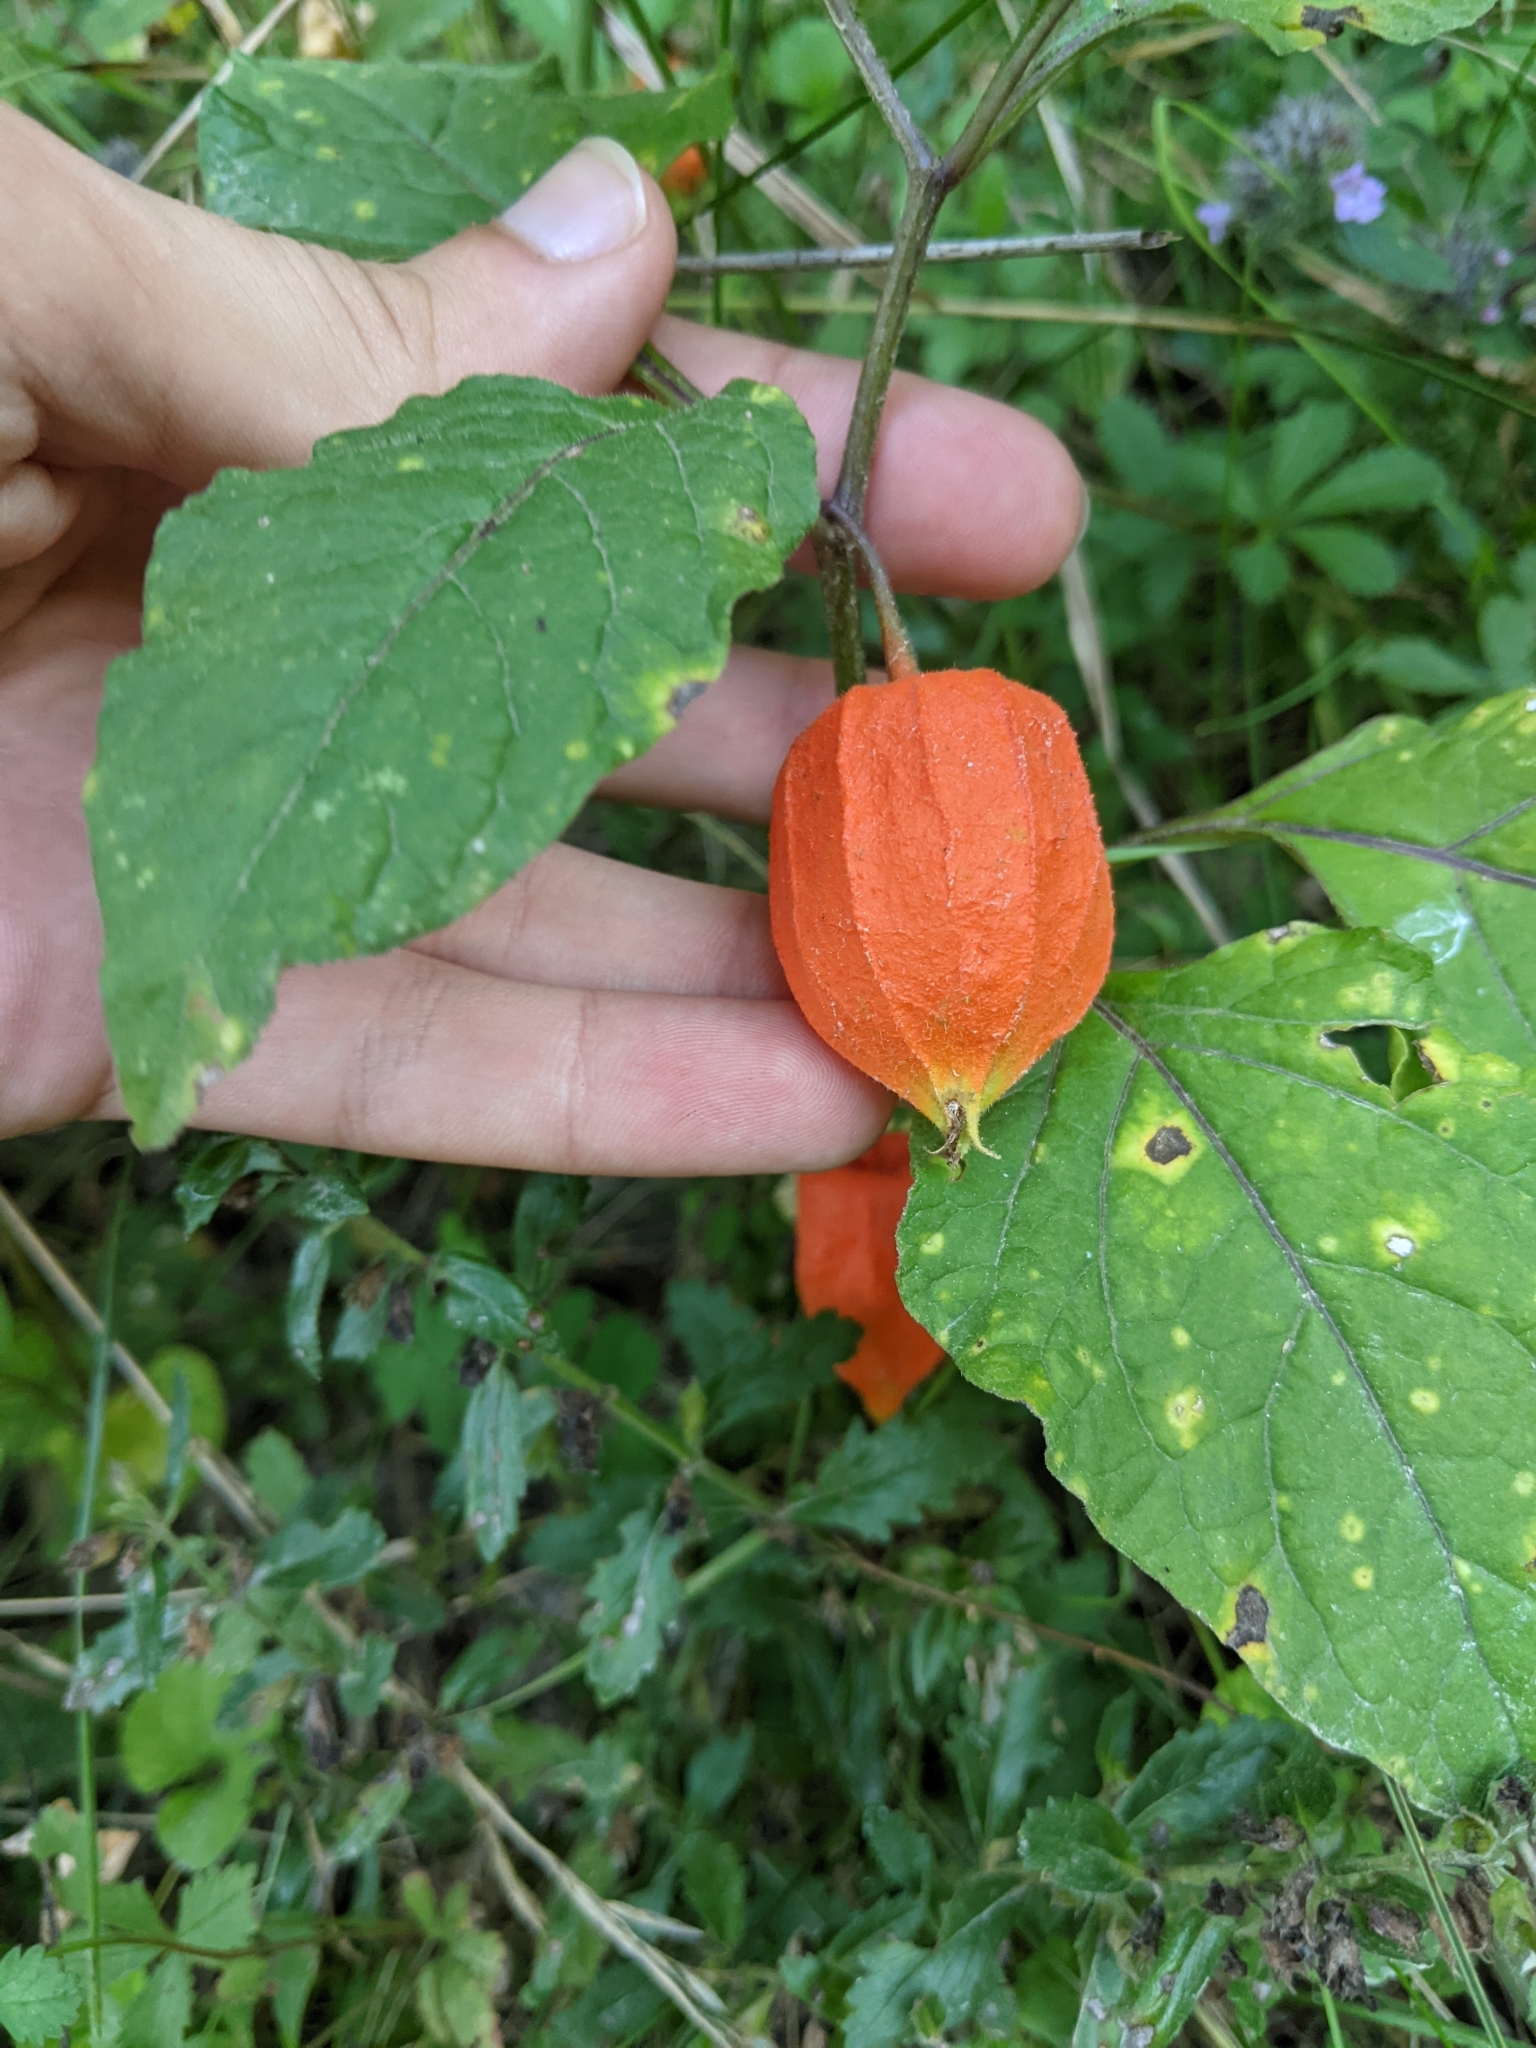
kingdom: Plantae
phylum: Tracheophyta
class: Magnoliopsida
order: Solanales
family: Solanaceae
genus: Alkekengi
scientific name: Alkekengi officinarum
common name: Japanese-lantern
